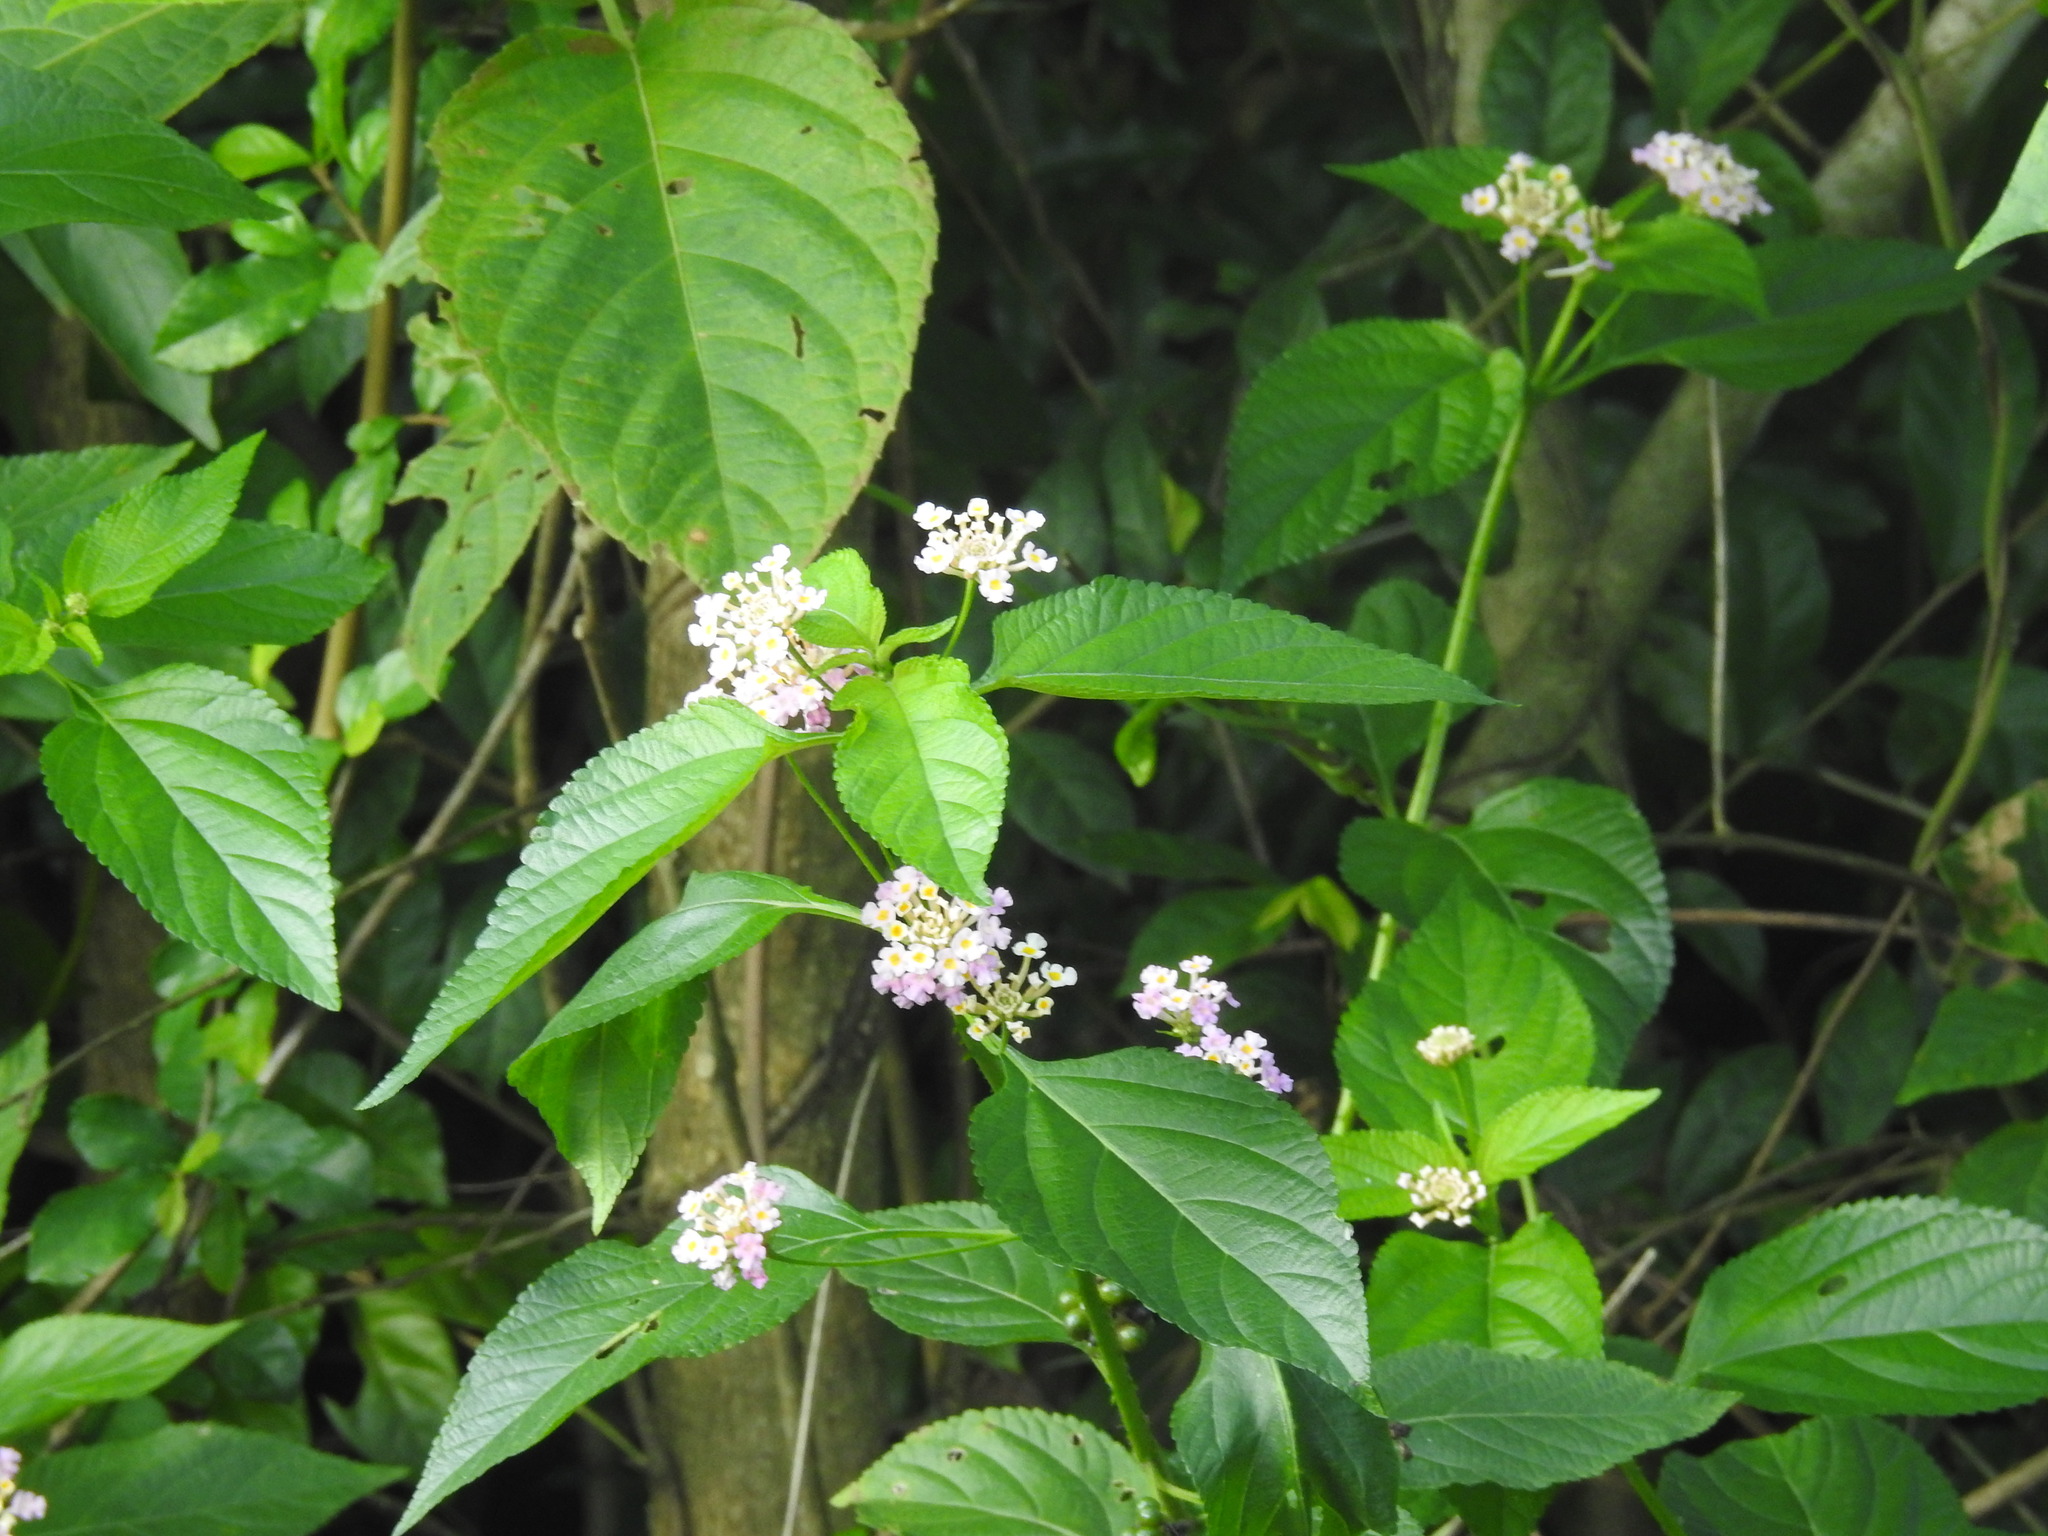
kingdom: Plantae
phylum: Tracheophyta
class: Magnoliopsida
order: Lamiales
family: Verbenaceae
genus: Lantana
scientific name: Lantana camara
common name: Lantana
